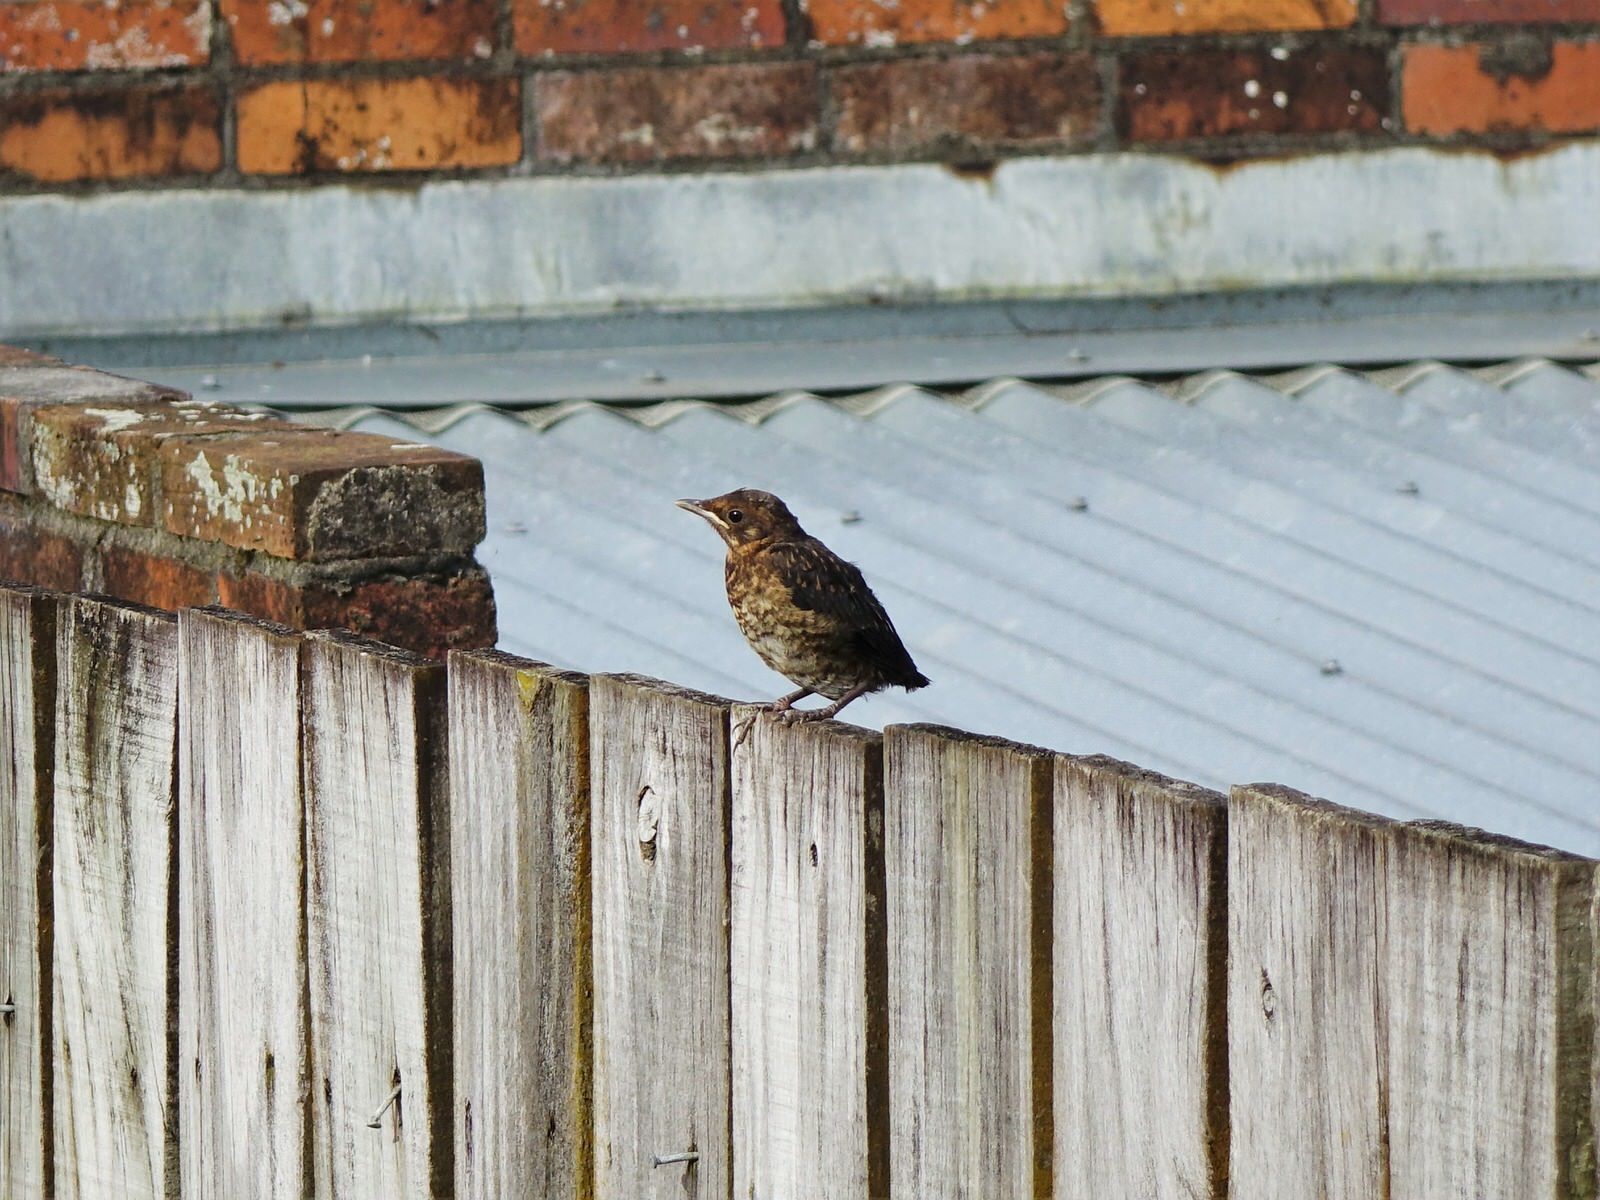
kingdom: Animalia
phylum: Chordata
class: Aves
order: Passeriformes
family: Turdidae
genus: Turdus
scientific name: Turdus merula
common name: Common blackbird
